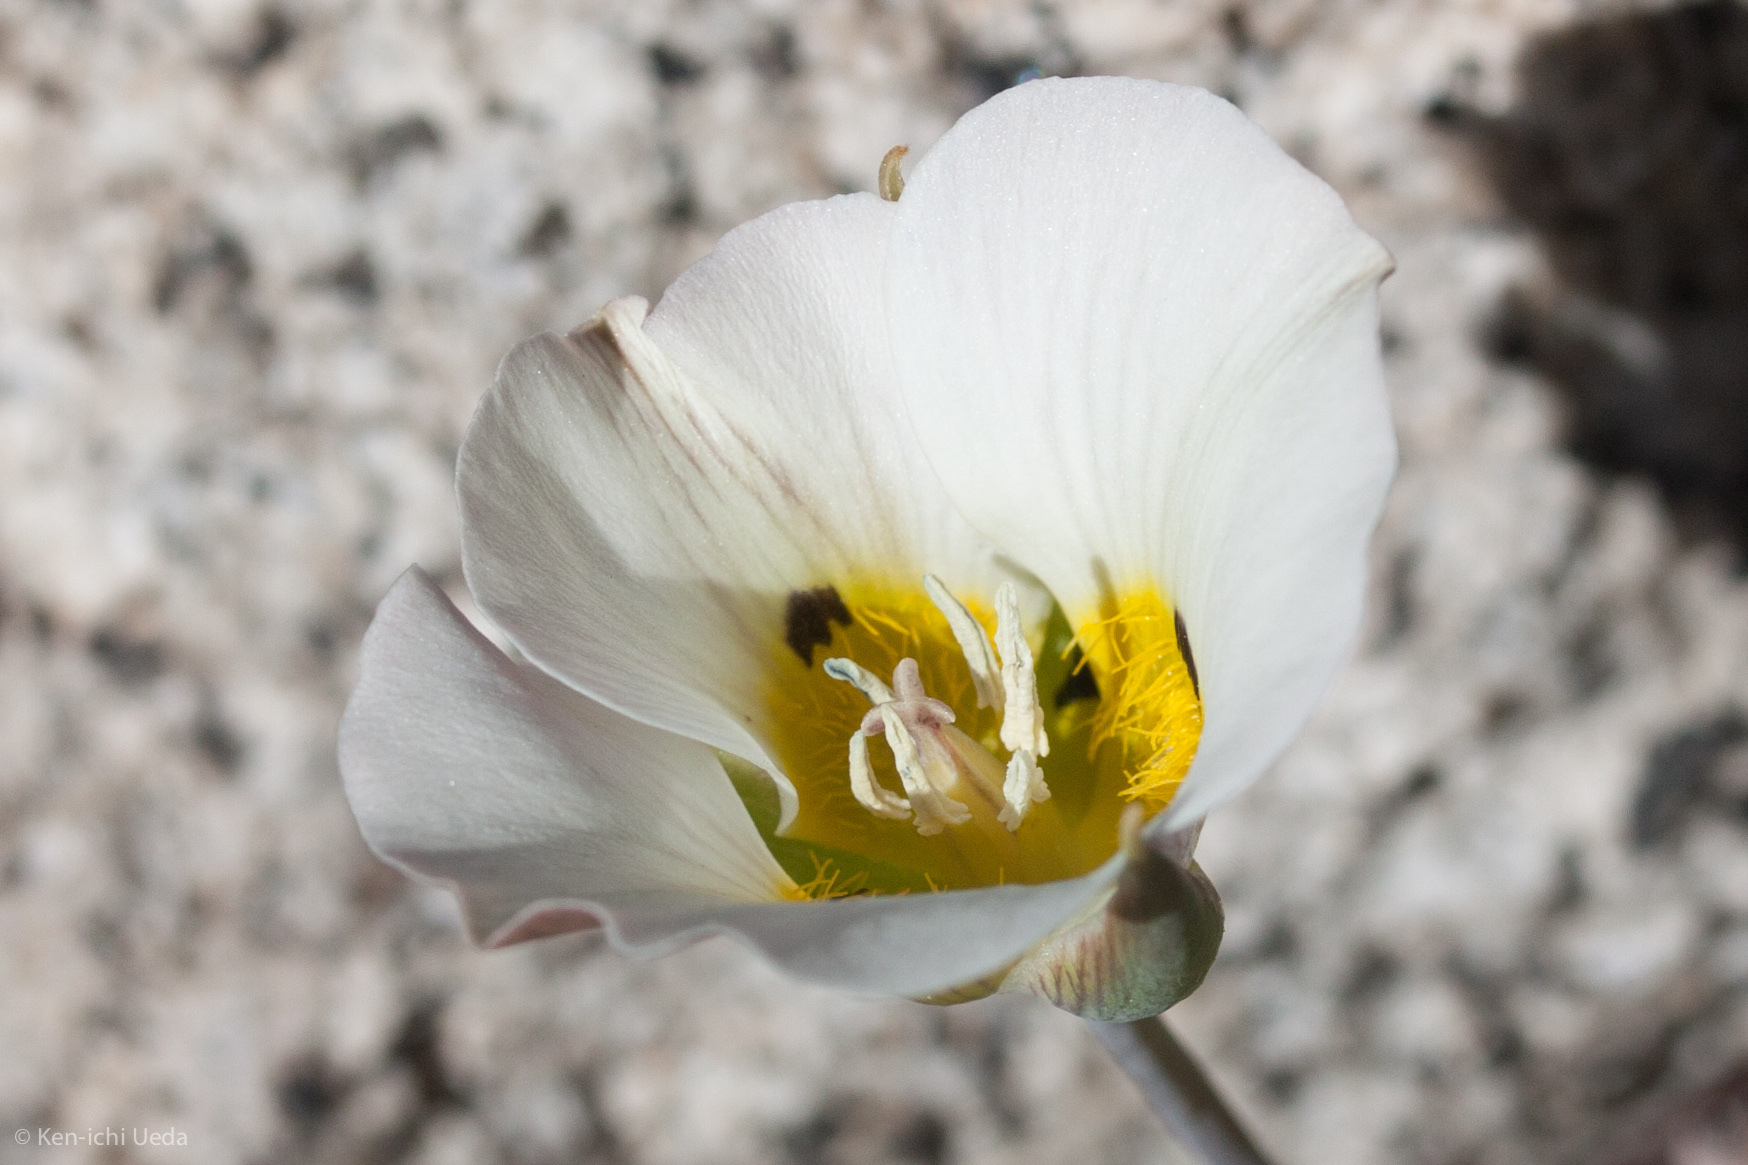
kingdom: Plantae
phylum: Tracheophyta
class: Liliopsida
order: Liliales
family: Liliaceae
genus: Calochortus
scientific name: Calochortus leichtlinii
